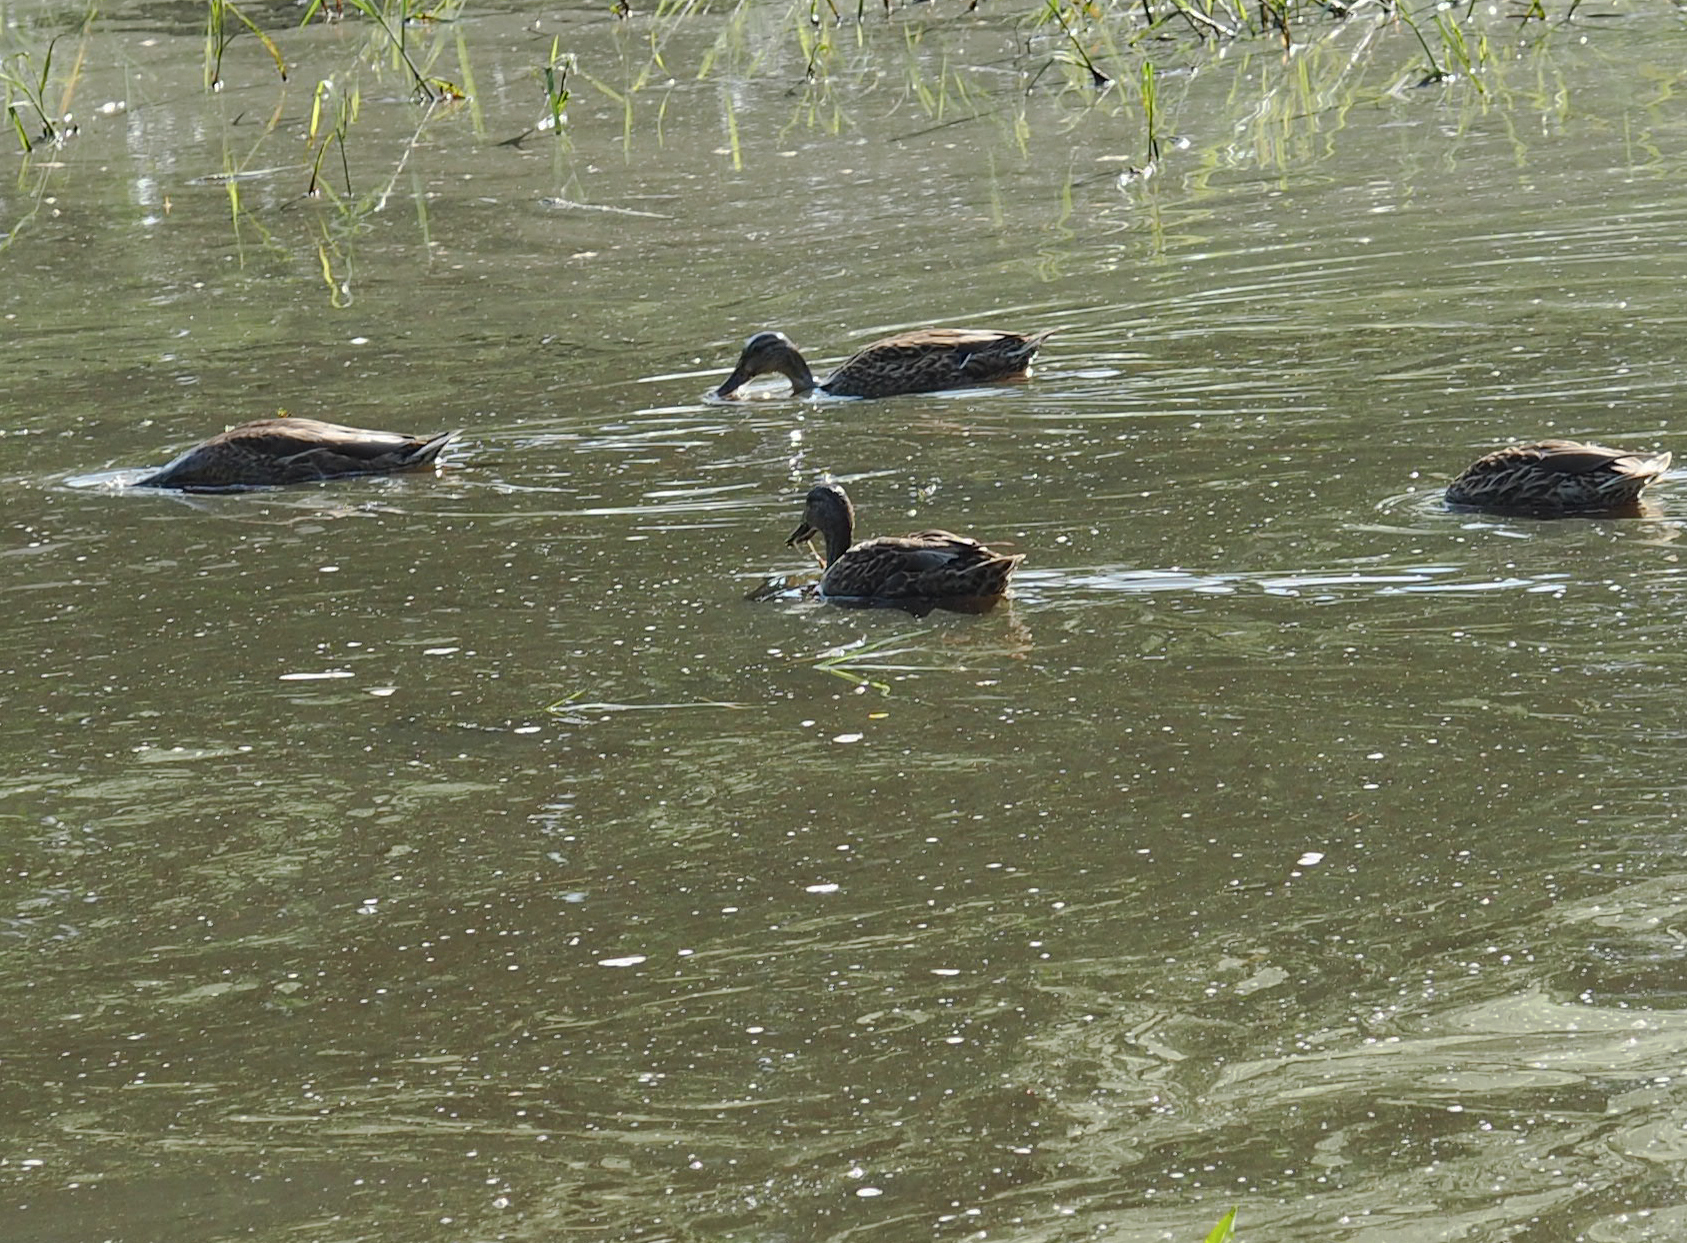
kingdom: Animalia
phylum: Chordata
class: Aves
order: Anseriformes
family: Anatidae
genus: Anas
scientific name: Anas platyrhynchos
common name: Mallard
